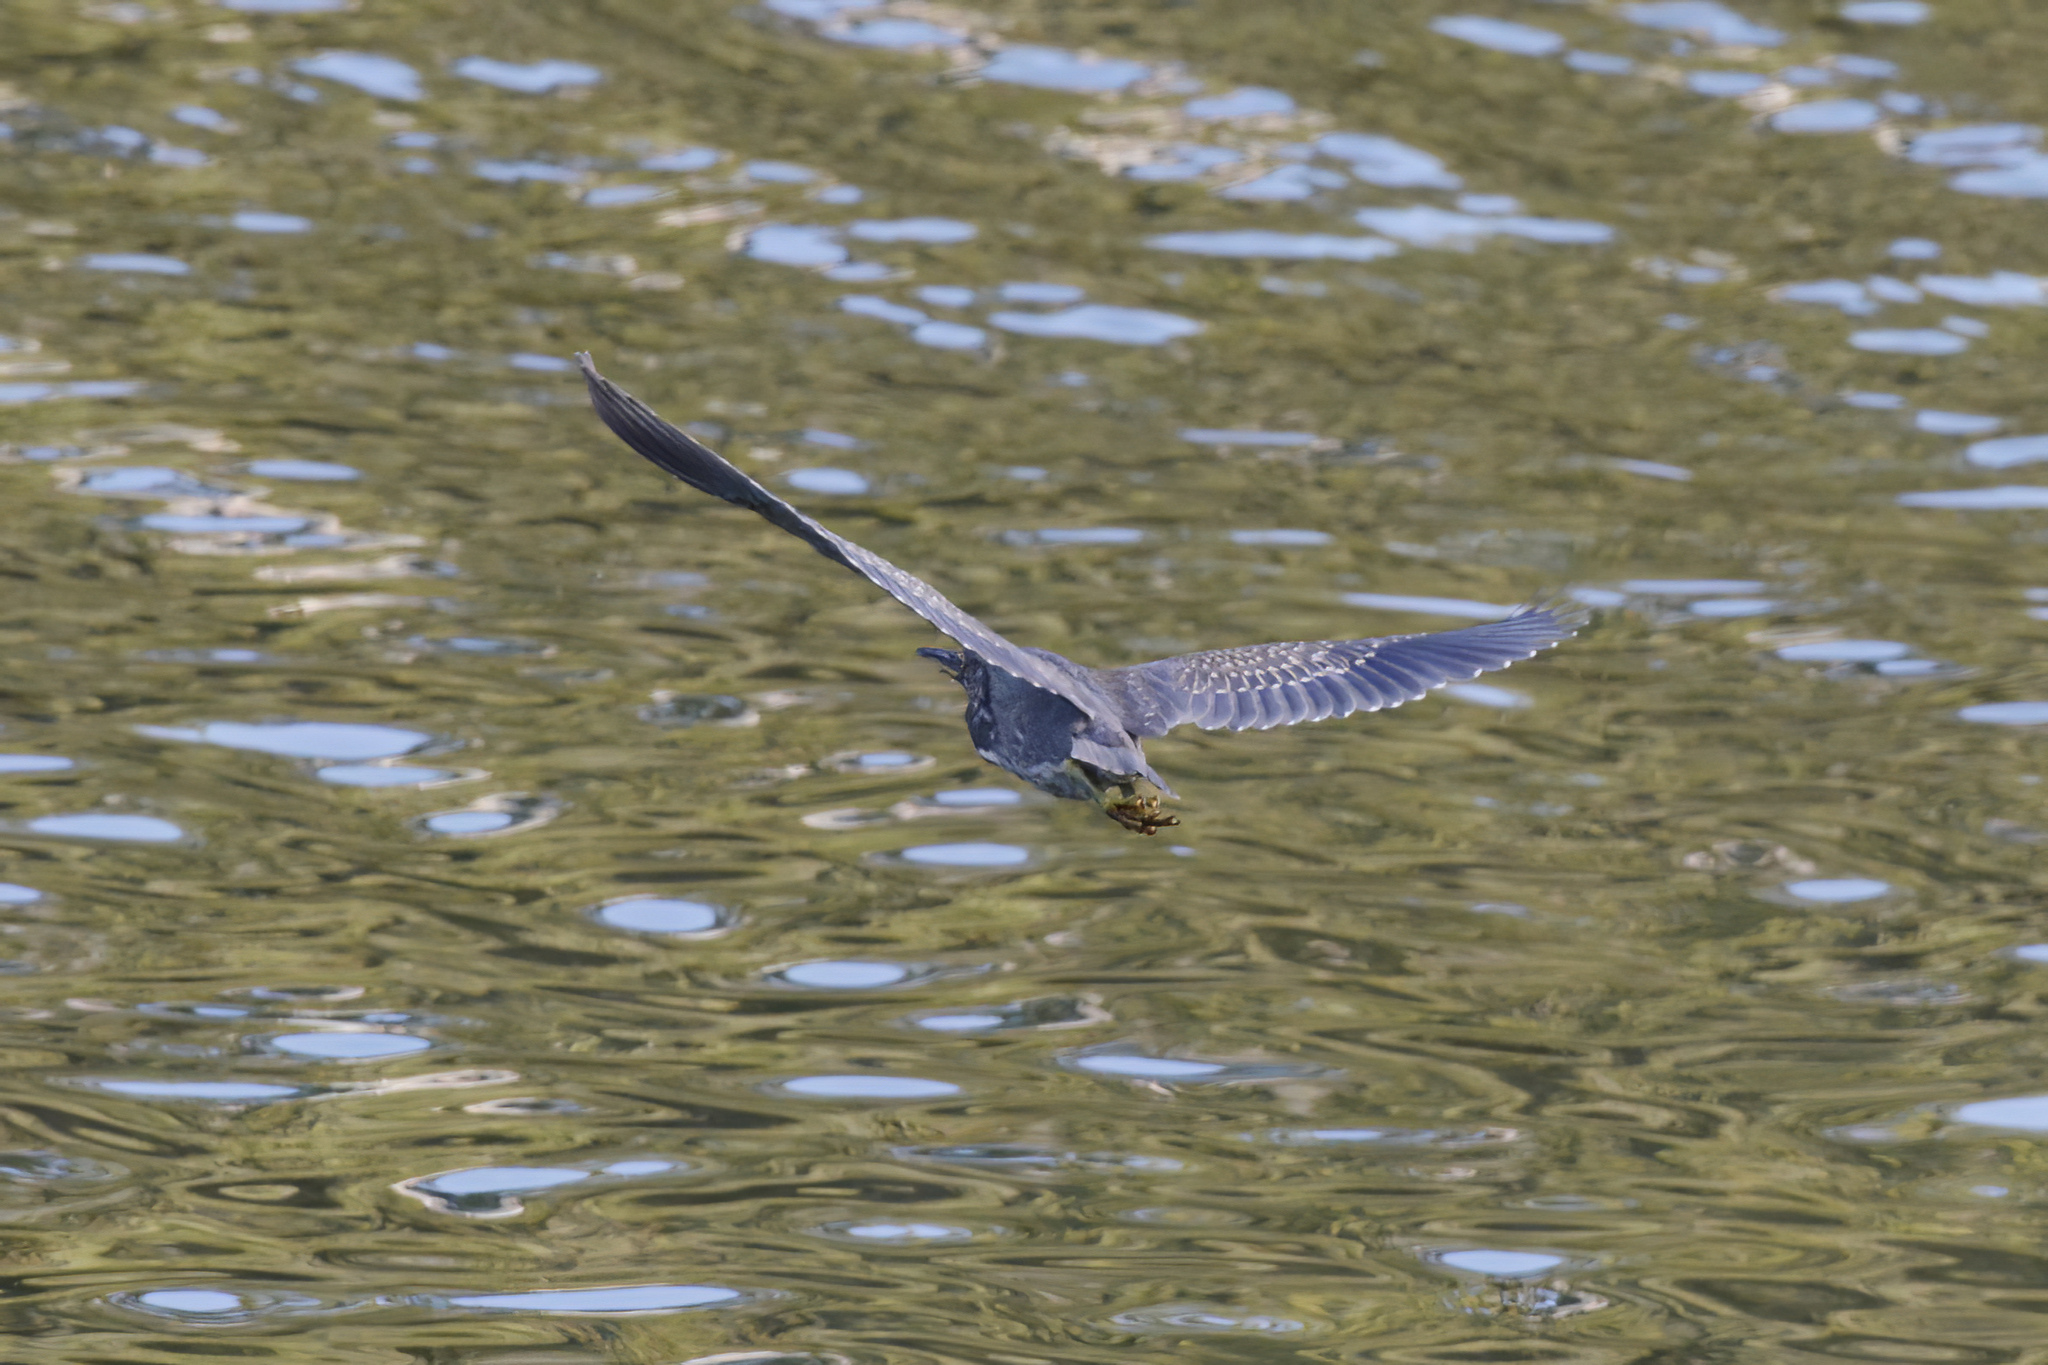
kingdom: Animalia
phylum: Chordata
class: Aves
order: Pelecaniformes
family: Ardeidae
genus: Butorides
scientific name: Butorides striata
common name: Striated heron
